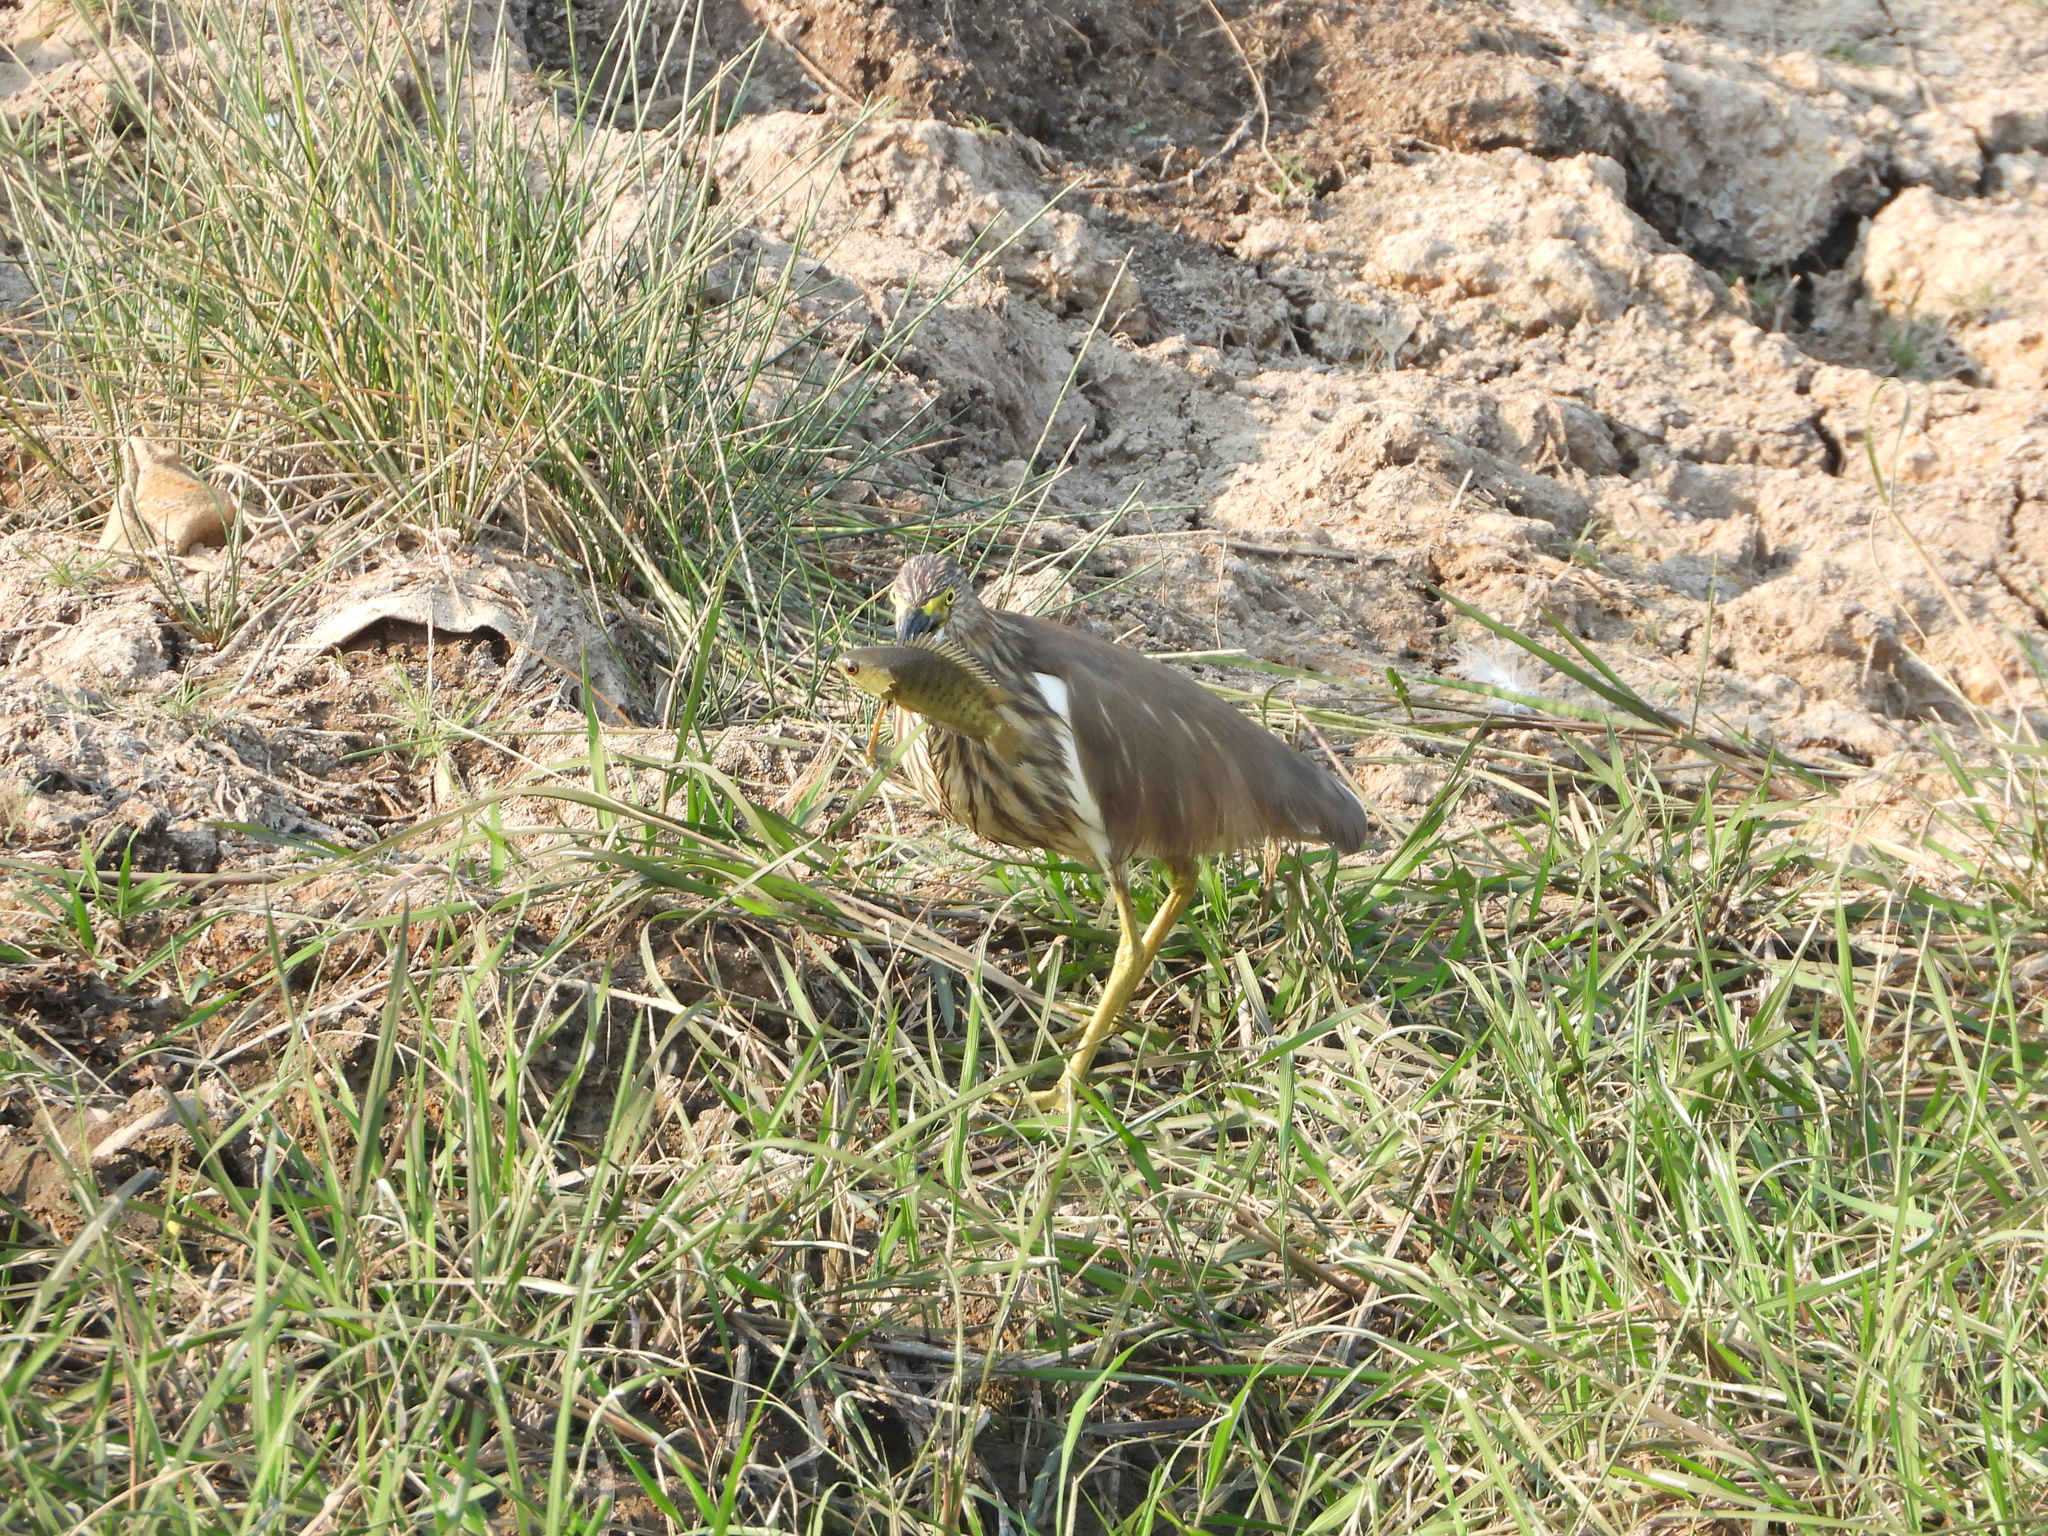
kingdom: Animalia
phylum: Chordata
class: Aves
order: Pelecaniformes
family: Ardeidae
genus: Ardeola
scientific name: Ardeola
